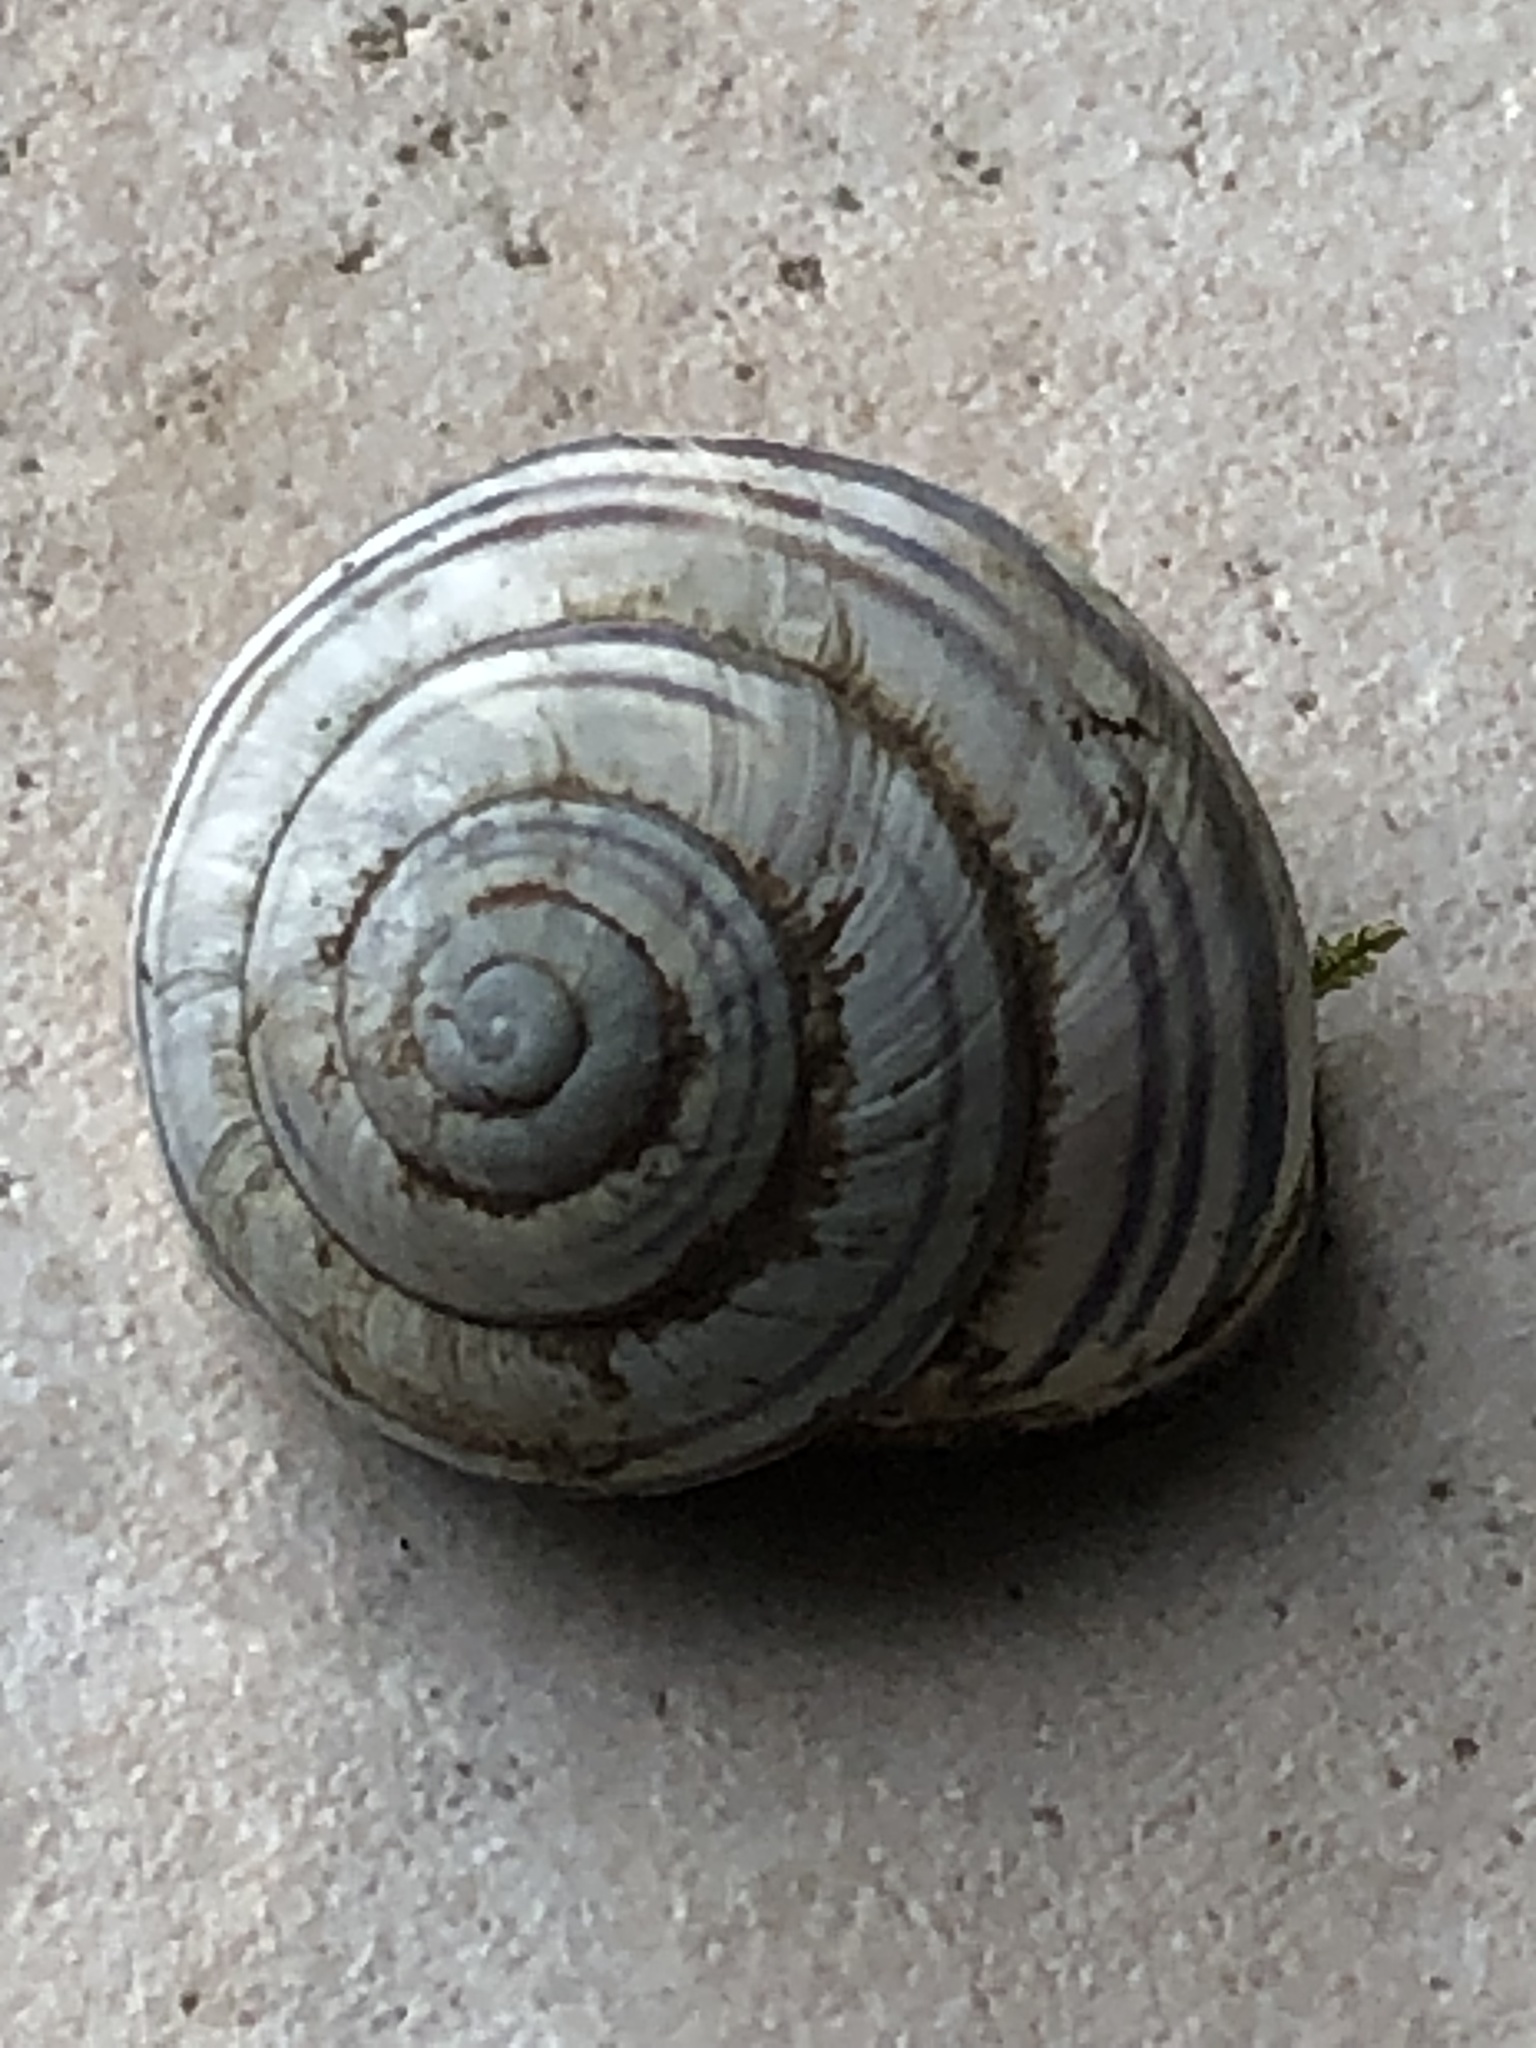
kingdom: Animalia
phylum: Mollusca
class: Gastropoda
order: Stylommatophora
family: Helicidae
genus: Cepaea
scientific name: Cepaea nemoralis
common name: Grovesnail
